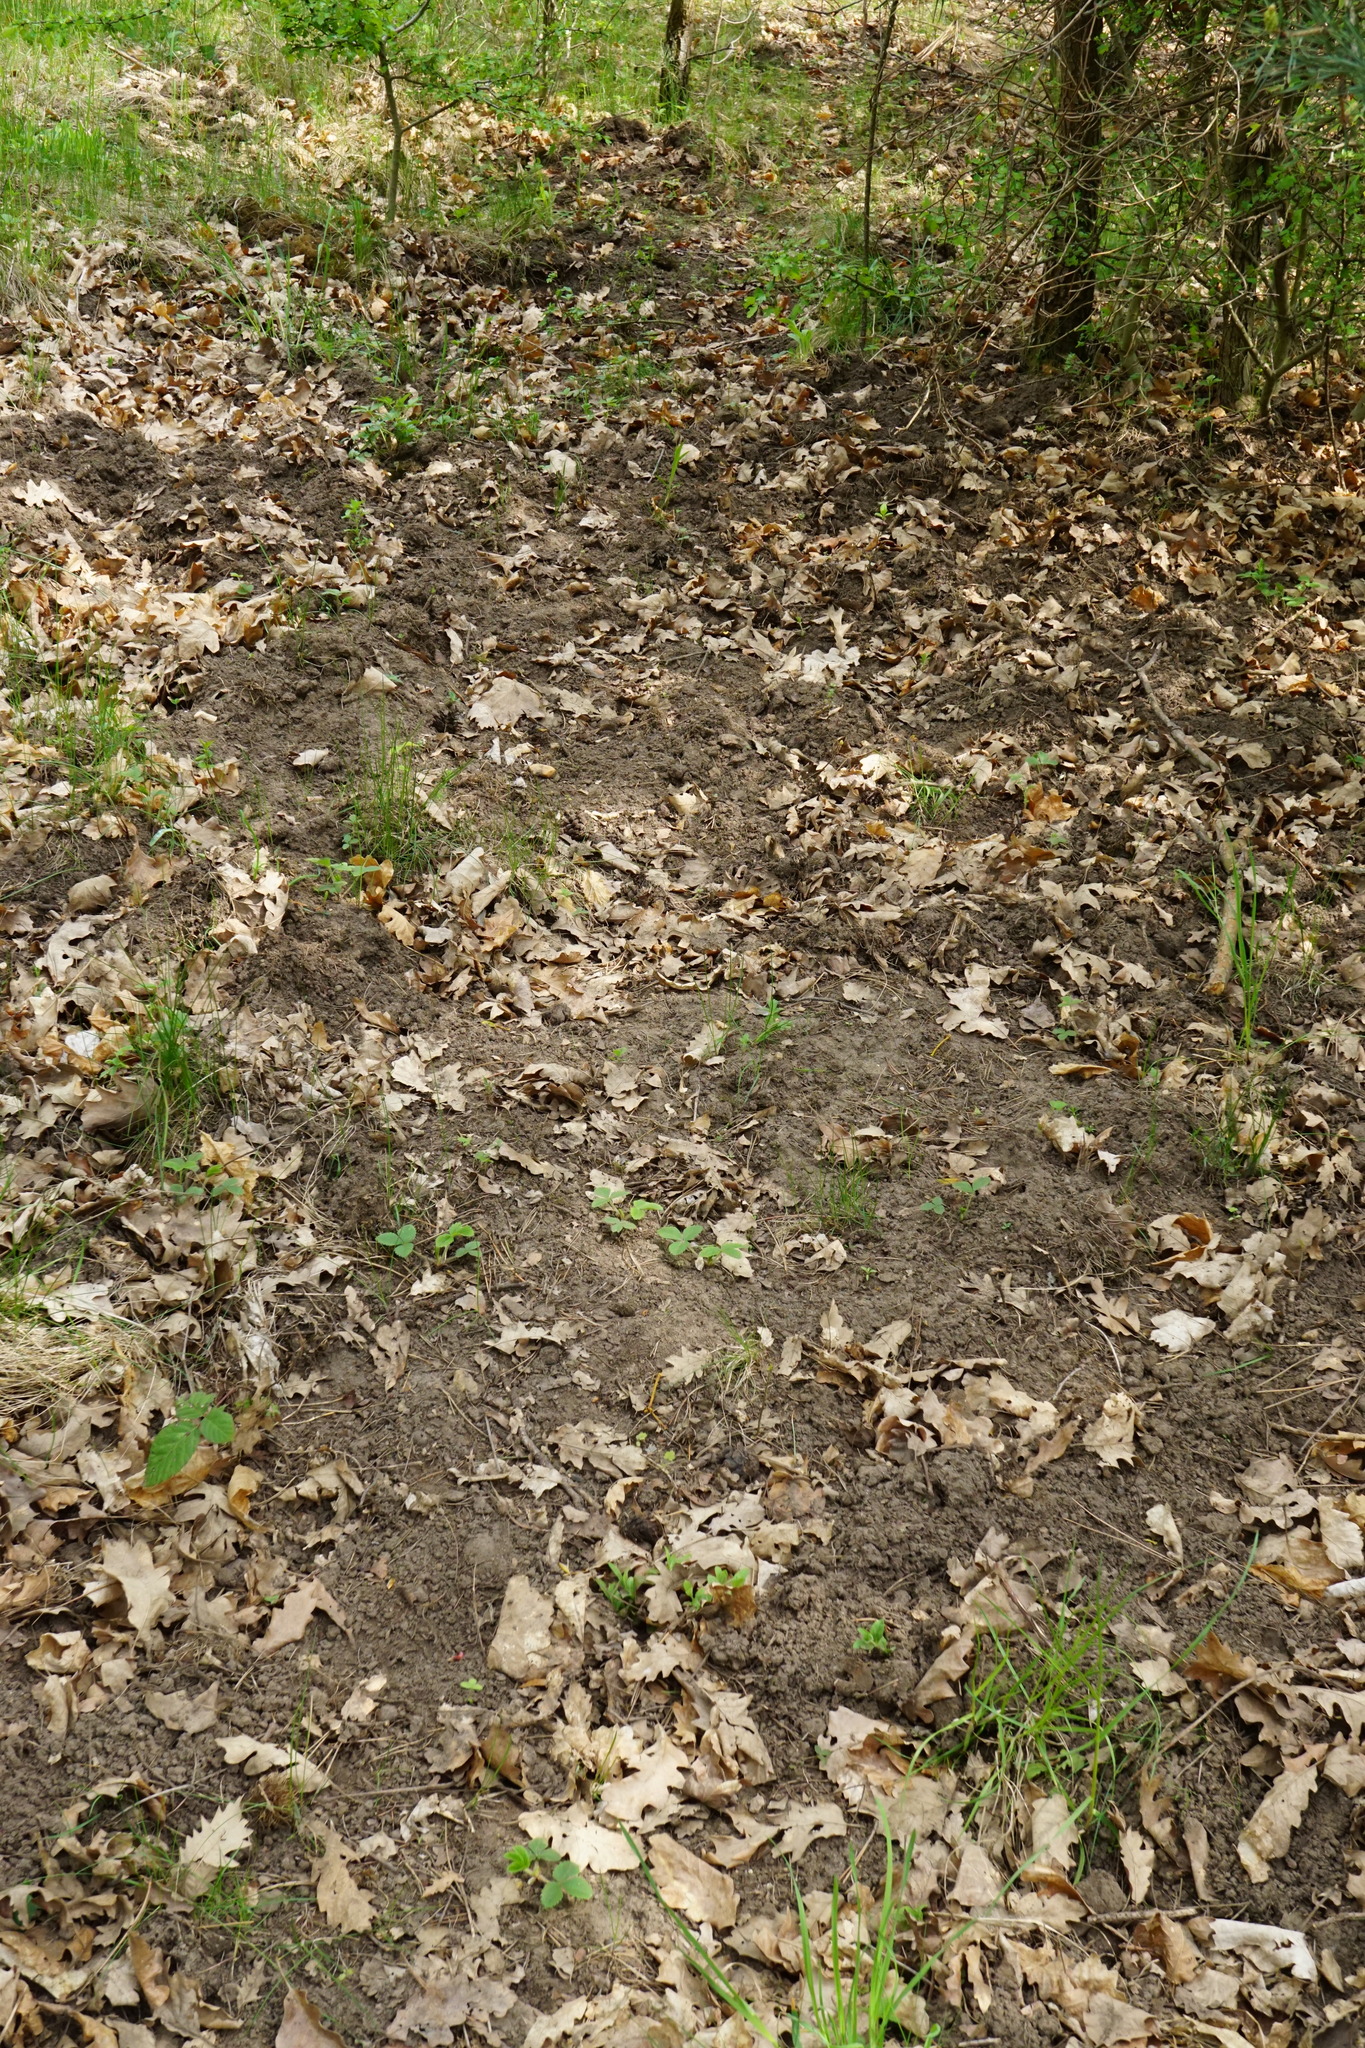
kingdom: Animalia
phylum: Chordata
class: Mammalia
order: Artiodactyla
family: Suidae
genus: Sus
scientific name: Sus scrofa
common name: Wild boar
